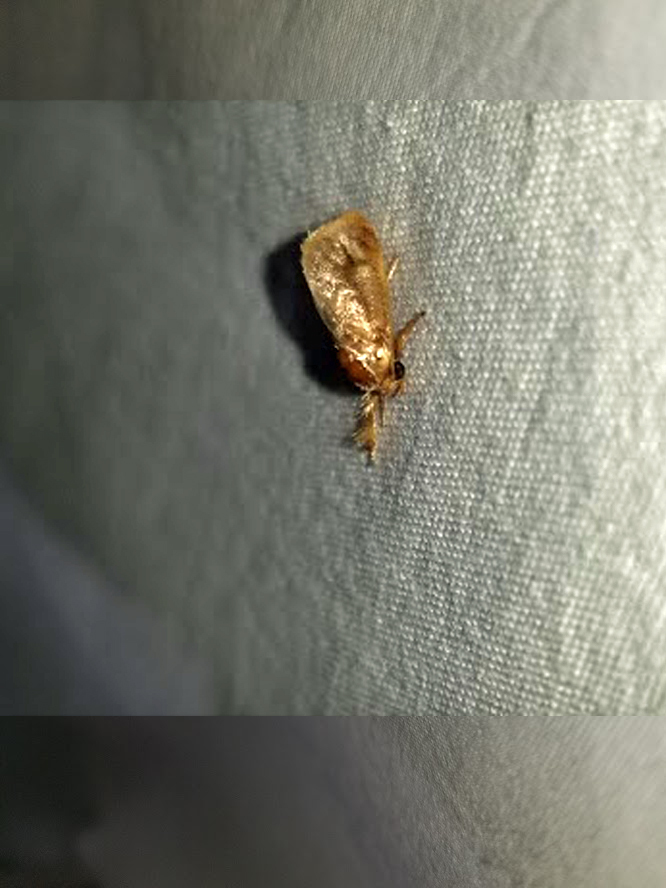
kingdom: Animalia
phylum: Arthropoda
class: Insecta
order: Lepidoptera
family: Limacodidae
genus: Isochaetes
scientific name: Isochaetes beutenmuelleri
